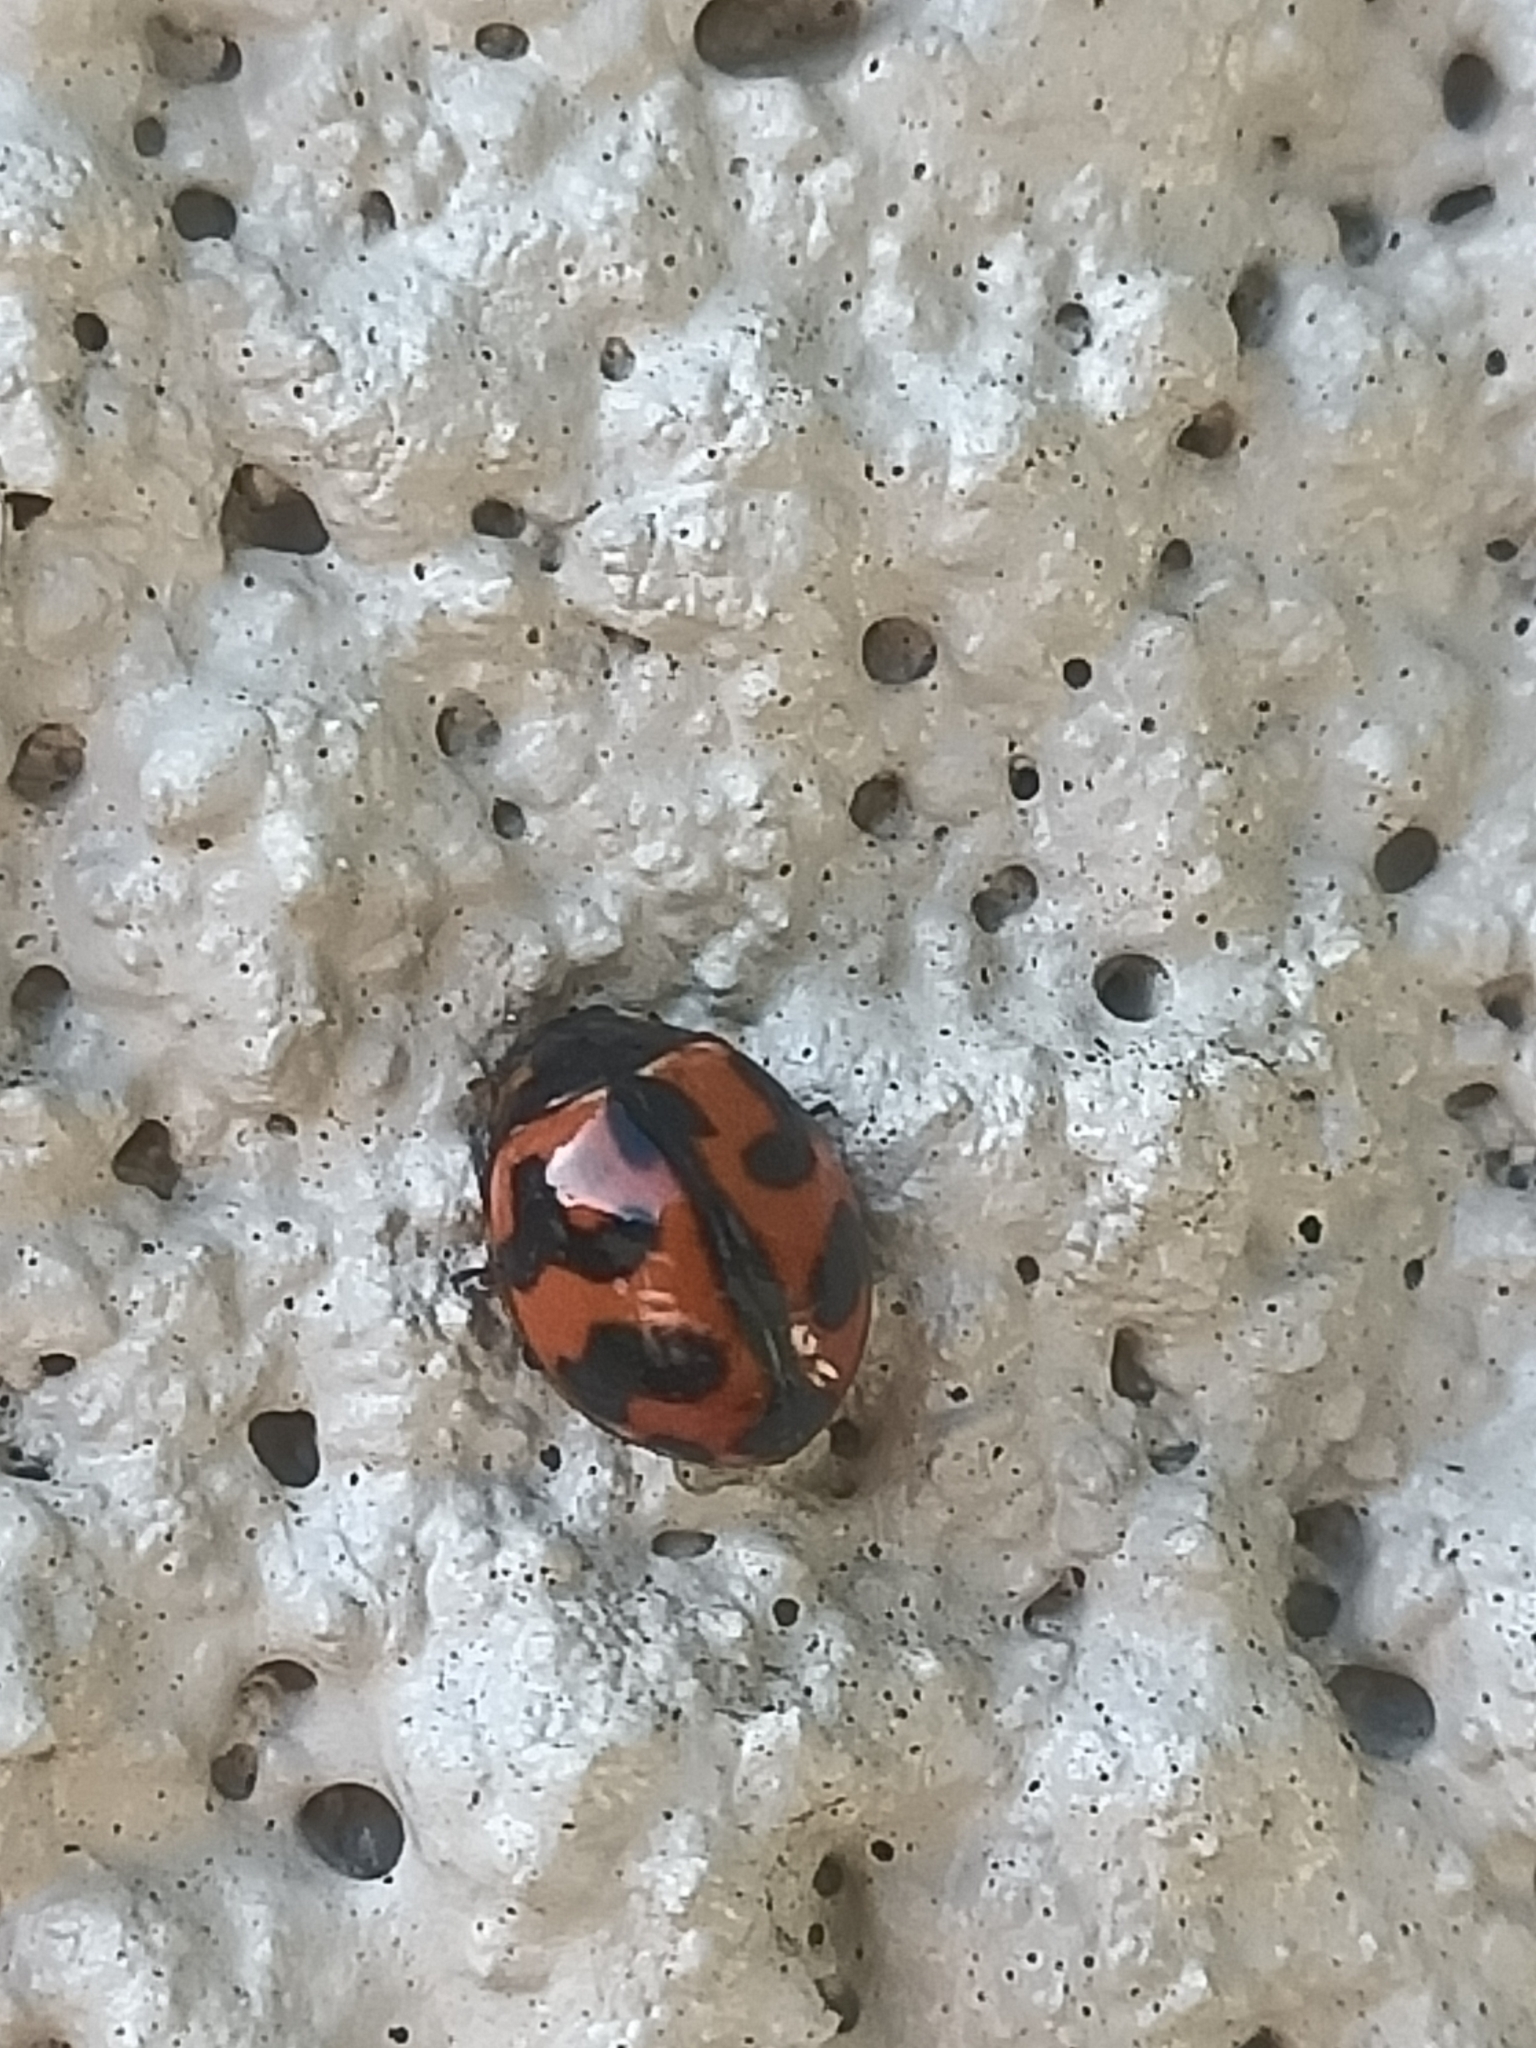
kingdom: Animalia
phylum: Arthropoda
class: Insecta
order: Coleoptera
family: Coccinellidae
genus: Coccinella
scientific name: Coccinella transversalis
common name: Transverse lady beetle
